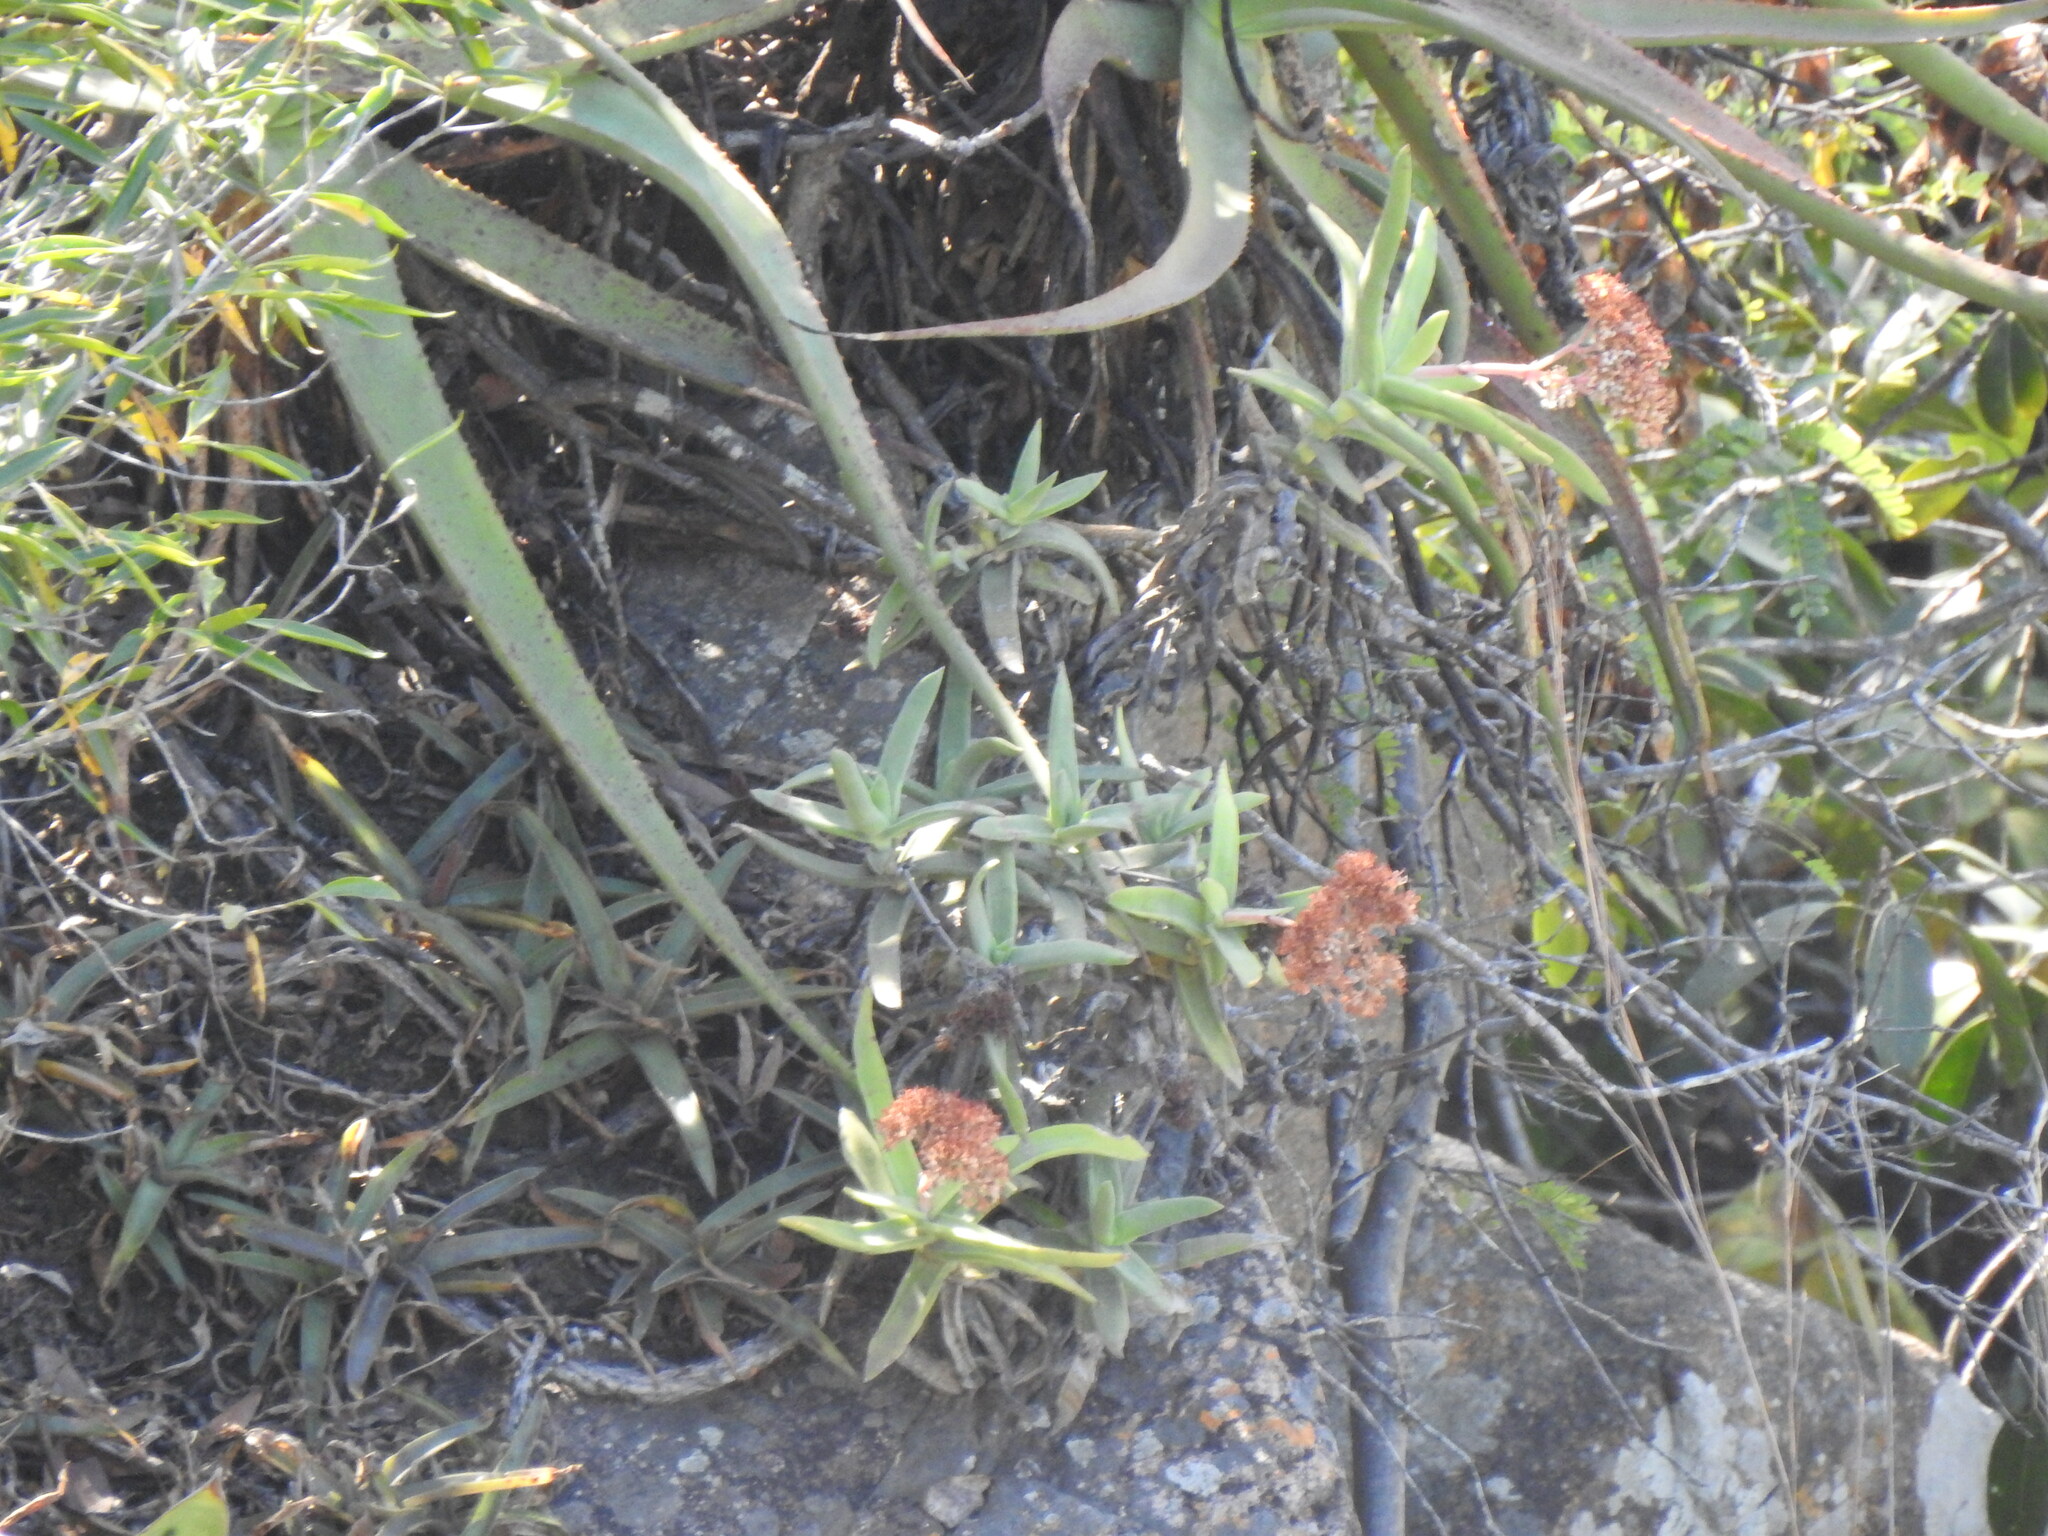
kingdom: Plantae
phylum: Tracheophyta
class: Magnoliopsida
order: Saxifragales
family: Crassulaceae
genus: Crassula
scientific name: Crassula perfoliata
